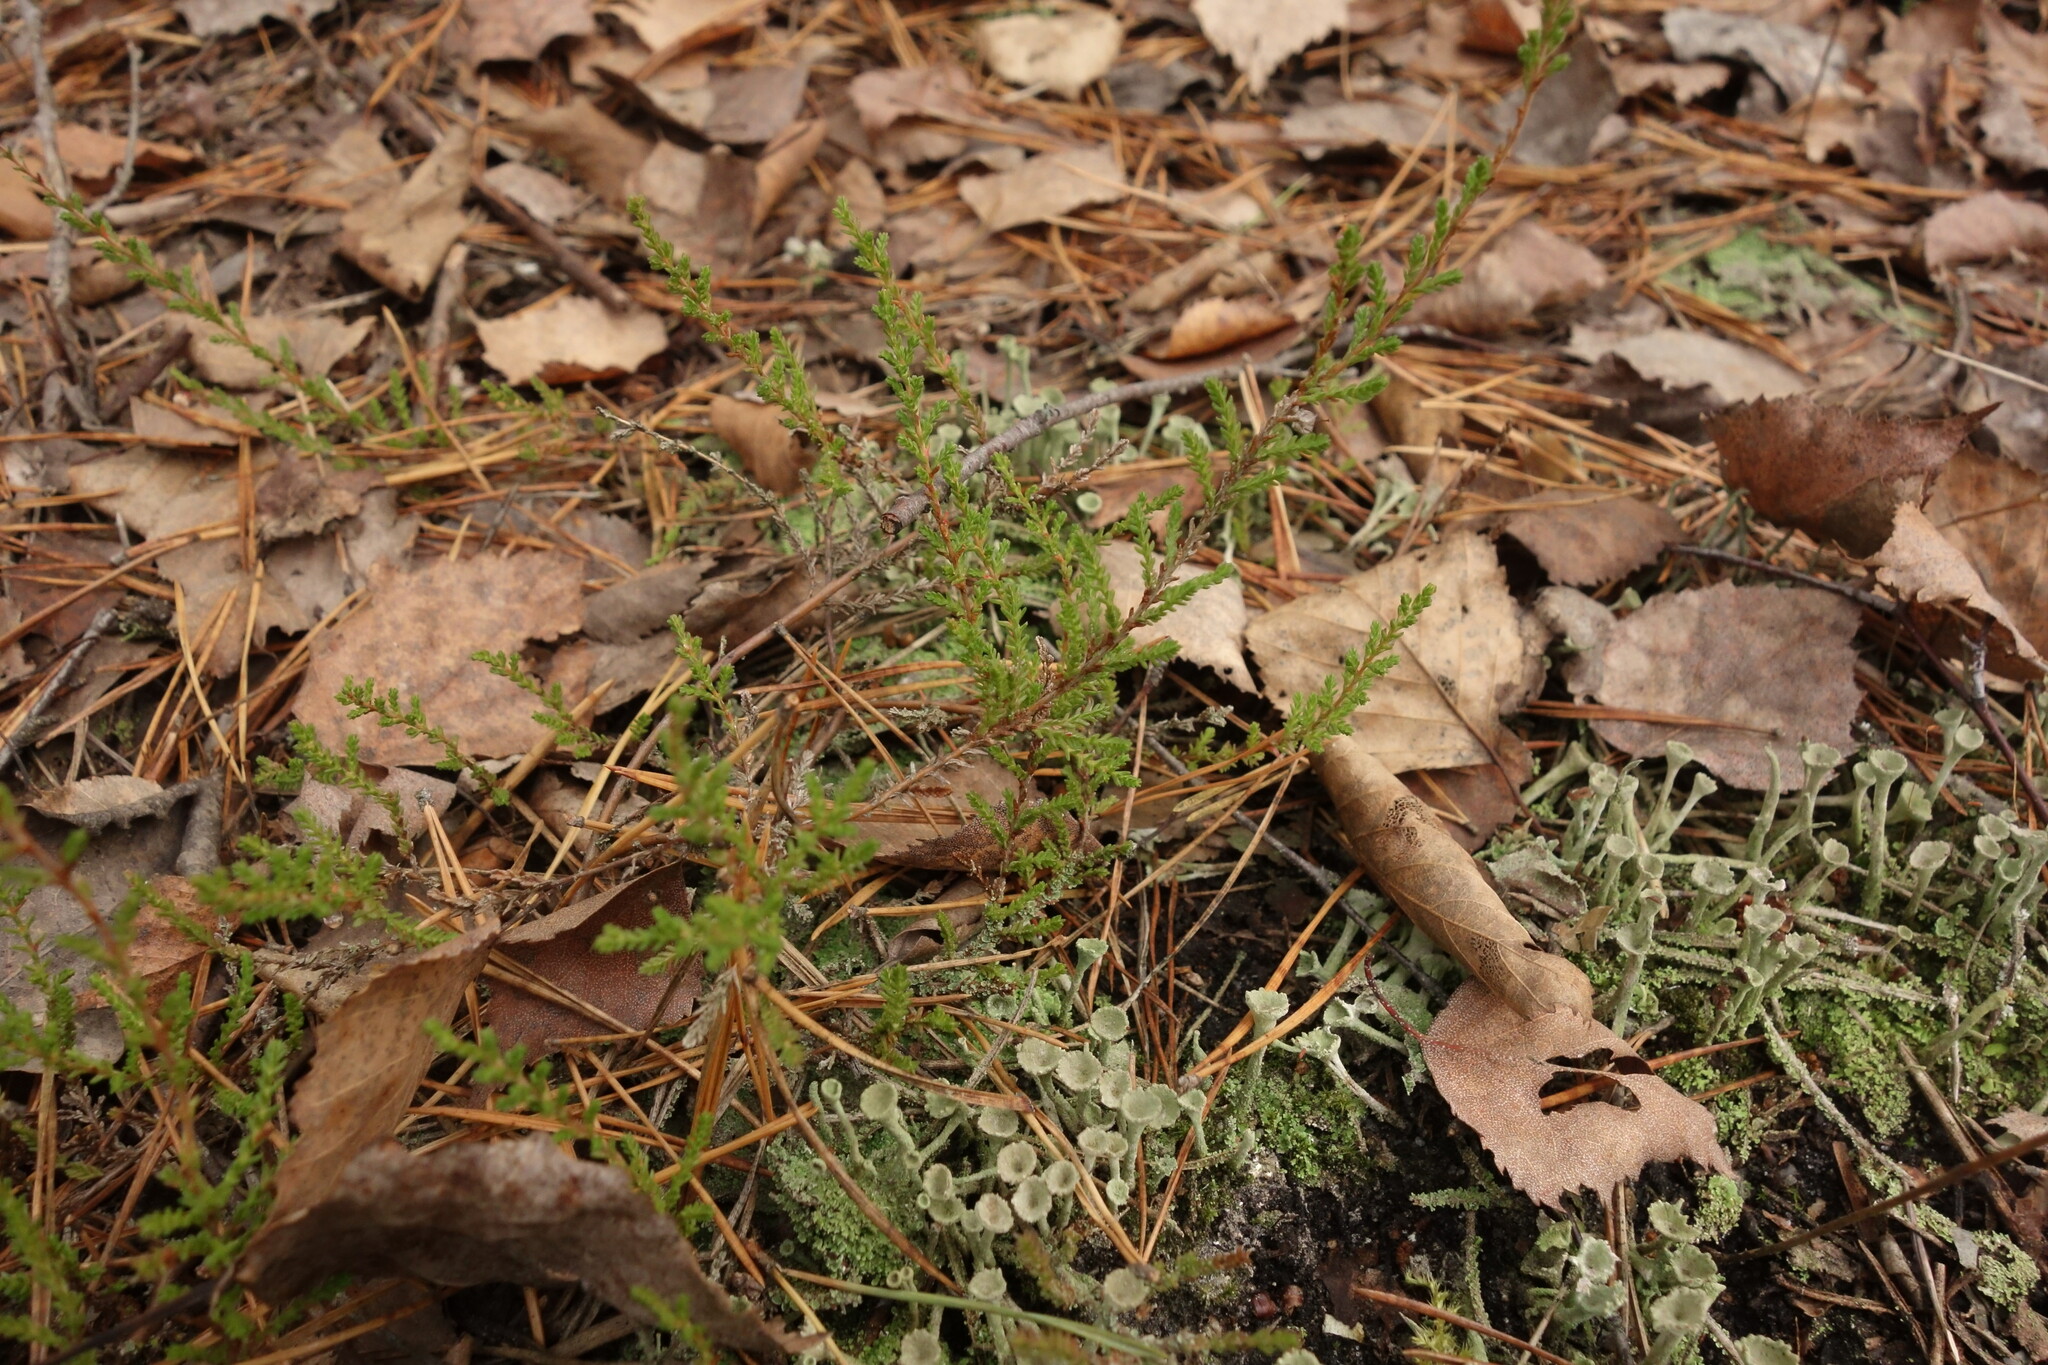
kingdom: Plantae
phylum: Tracheophyta
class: Magnoliopsida
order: Ericales
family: Ericaceae
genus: Calluna
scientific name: Calluna vulgaris
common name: Heather
